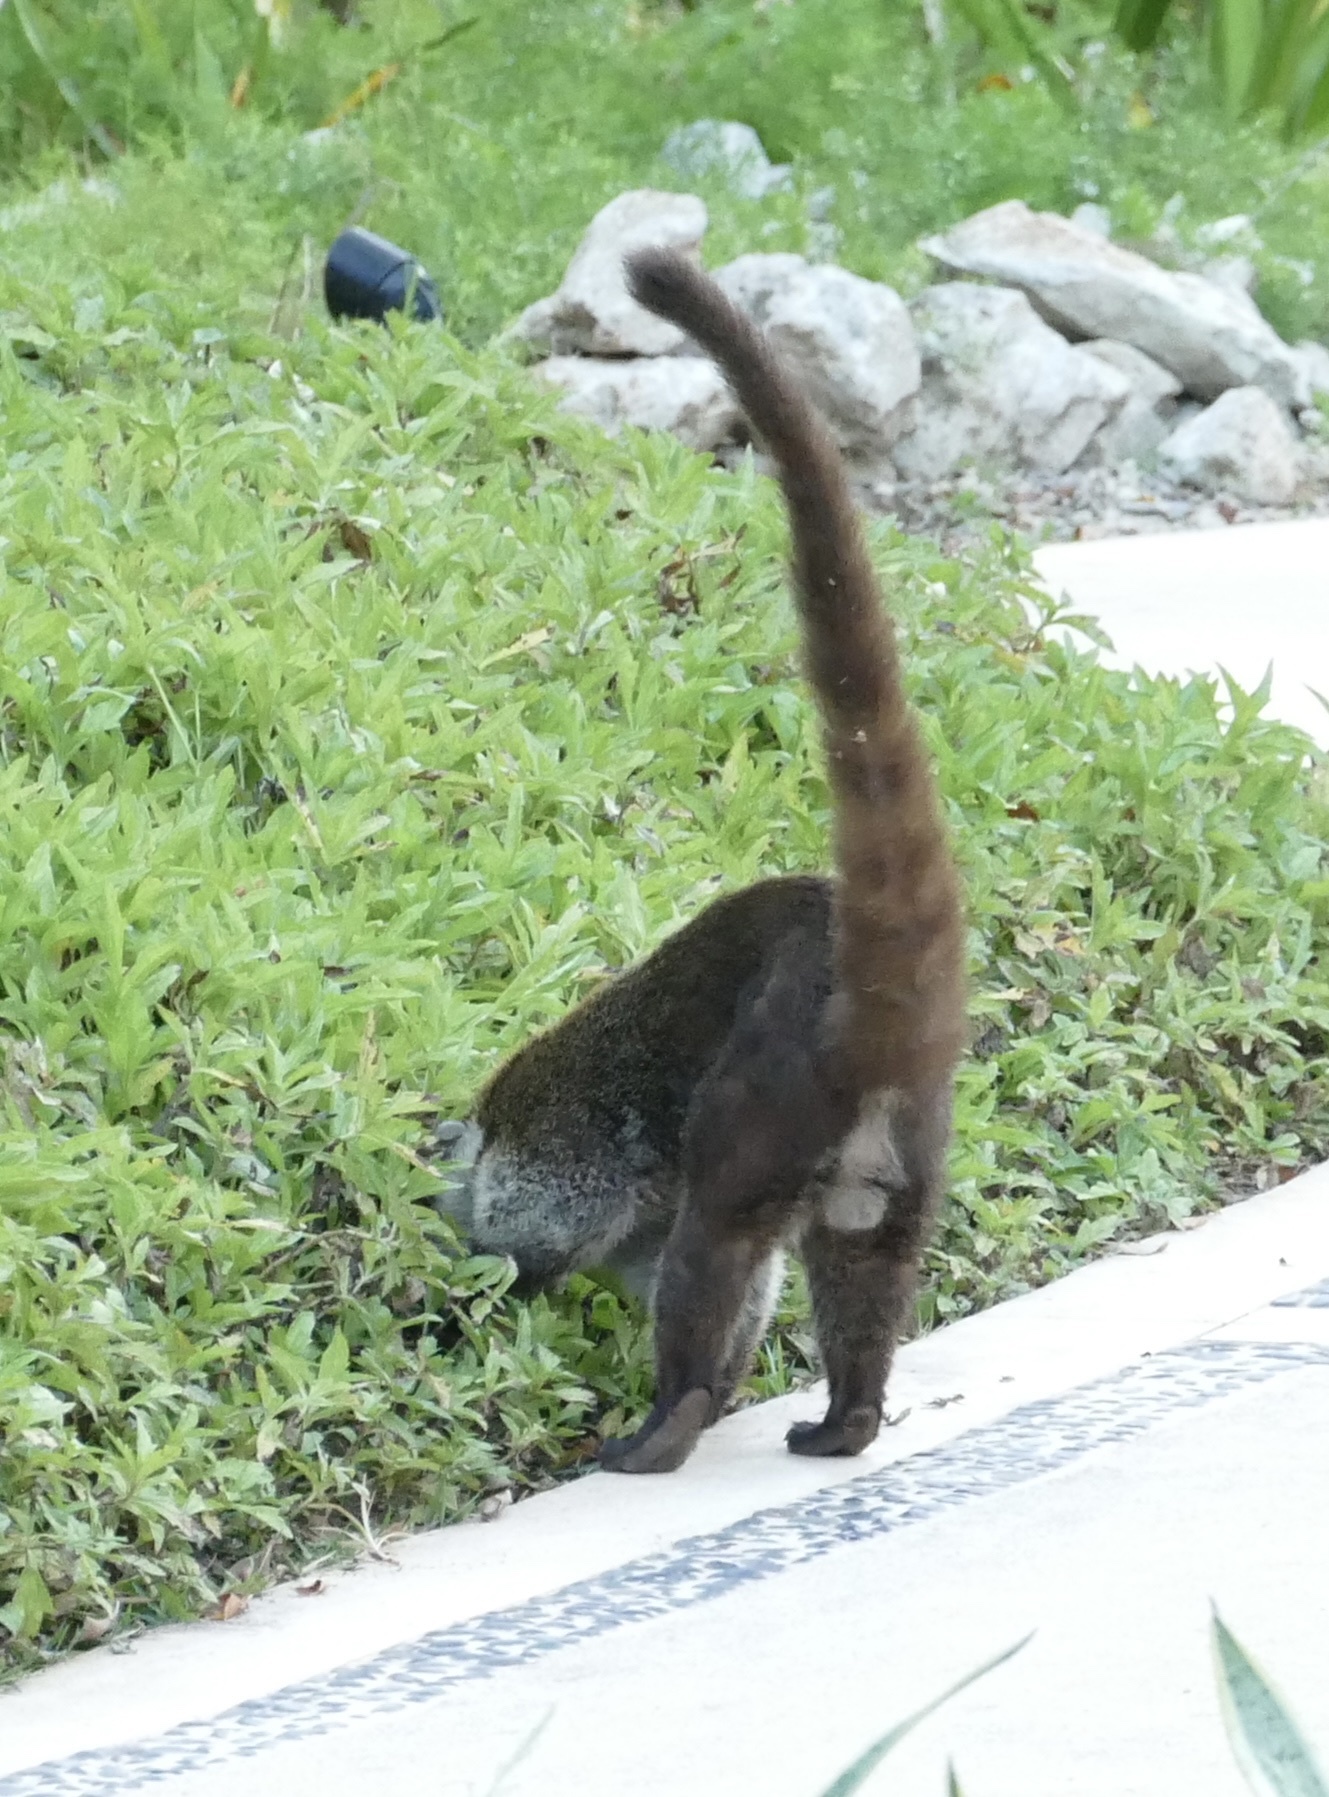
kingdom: Animalia
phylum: Chordata
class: Mammalia
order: Carnivora
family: Procyonidae
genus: Nasua
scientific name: Nasua narica
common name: White-nosed coati
